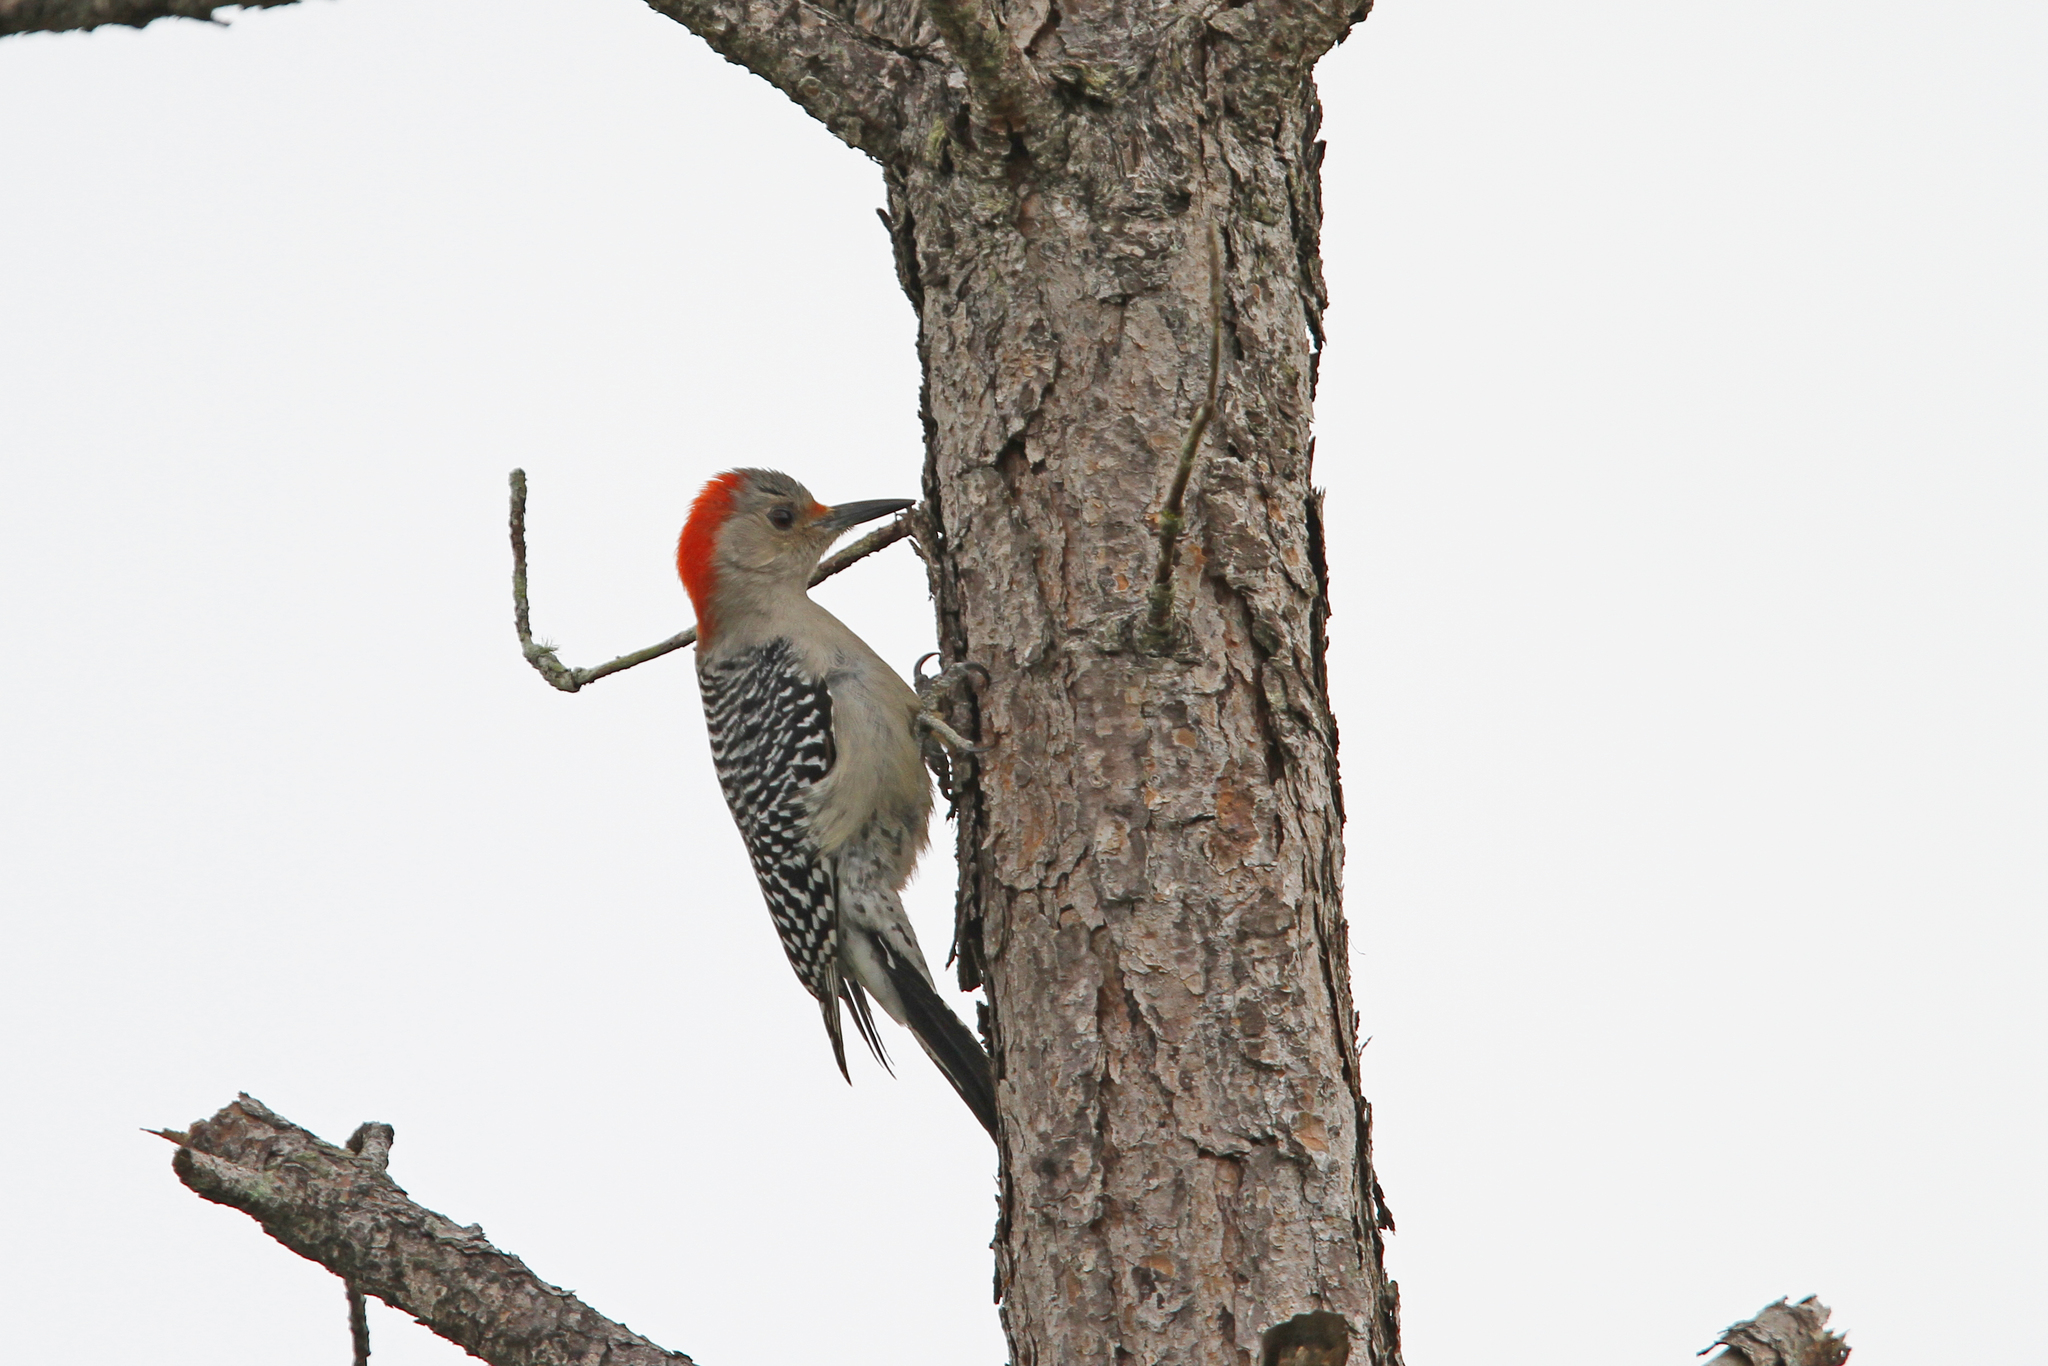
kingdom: Animalia
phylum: Chordata
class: Aves
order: Piciformes
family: Picidae
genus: Melanerpes
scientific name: Melanerpes carolinus
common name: Red-bellied woodpecker
